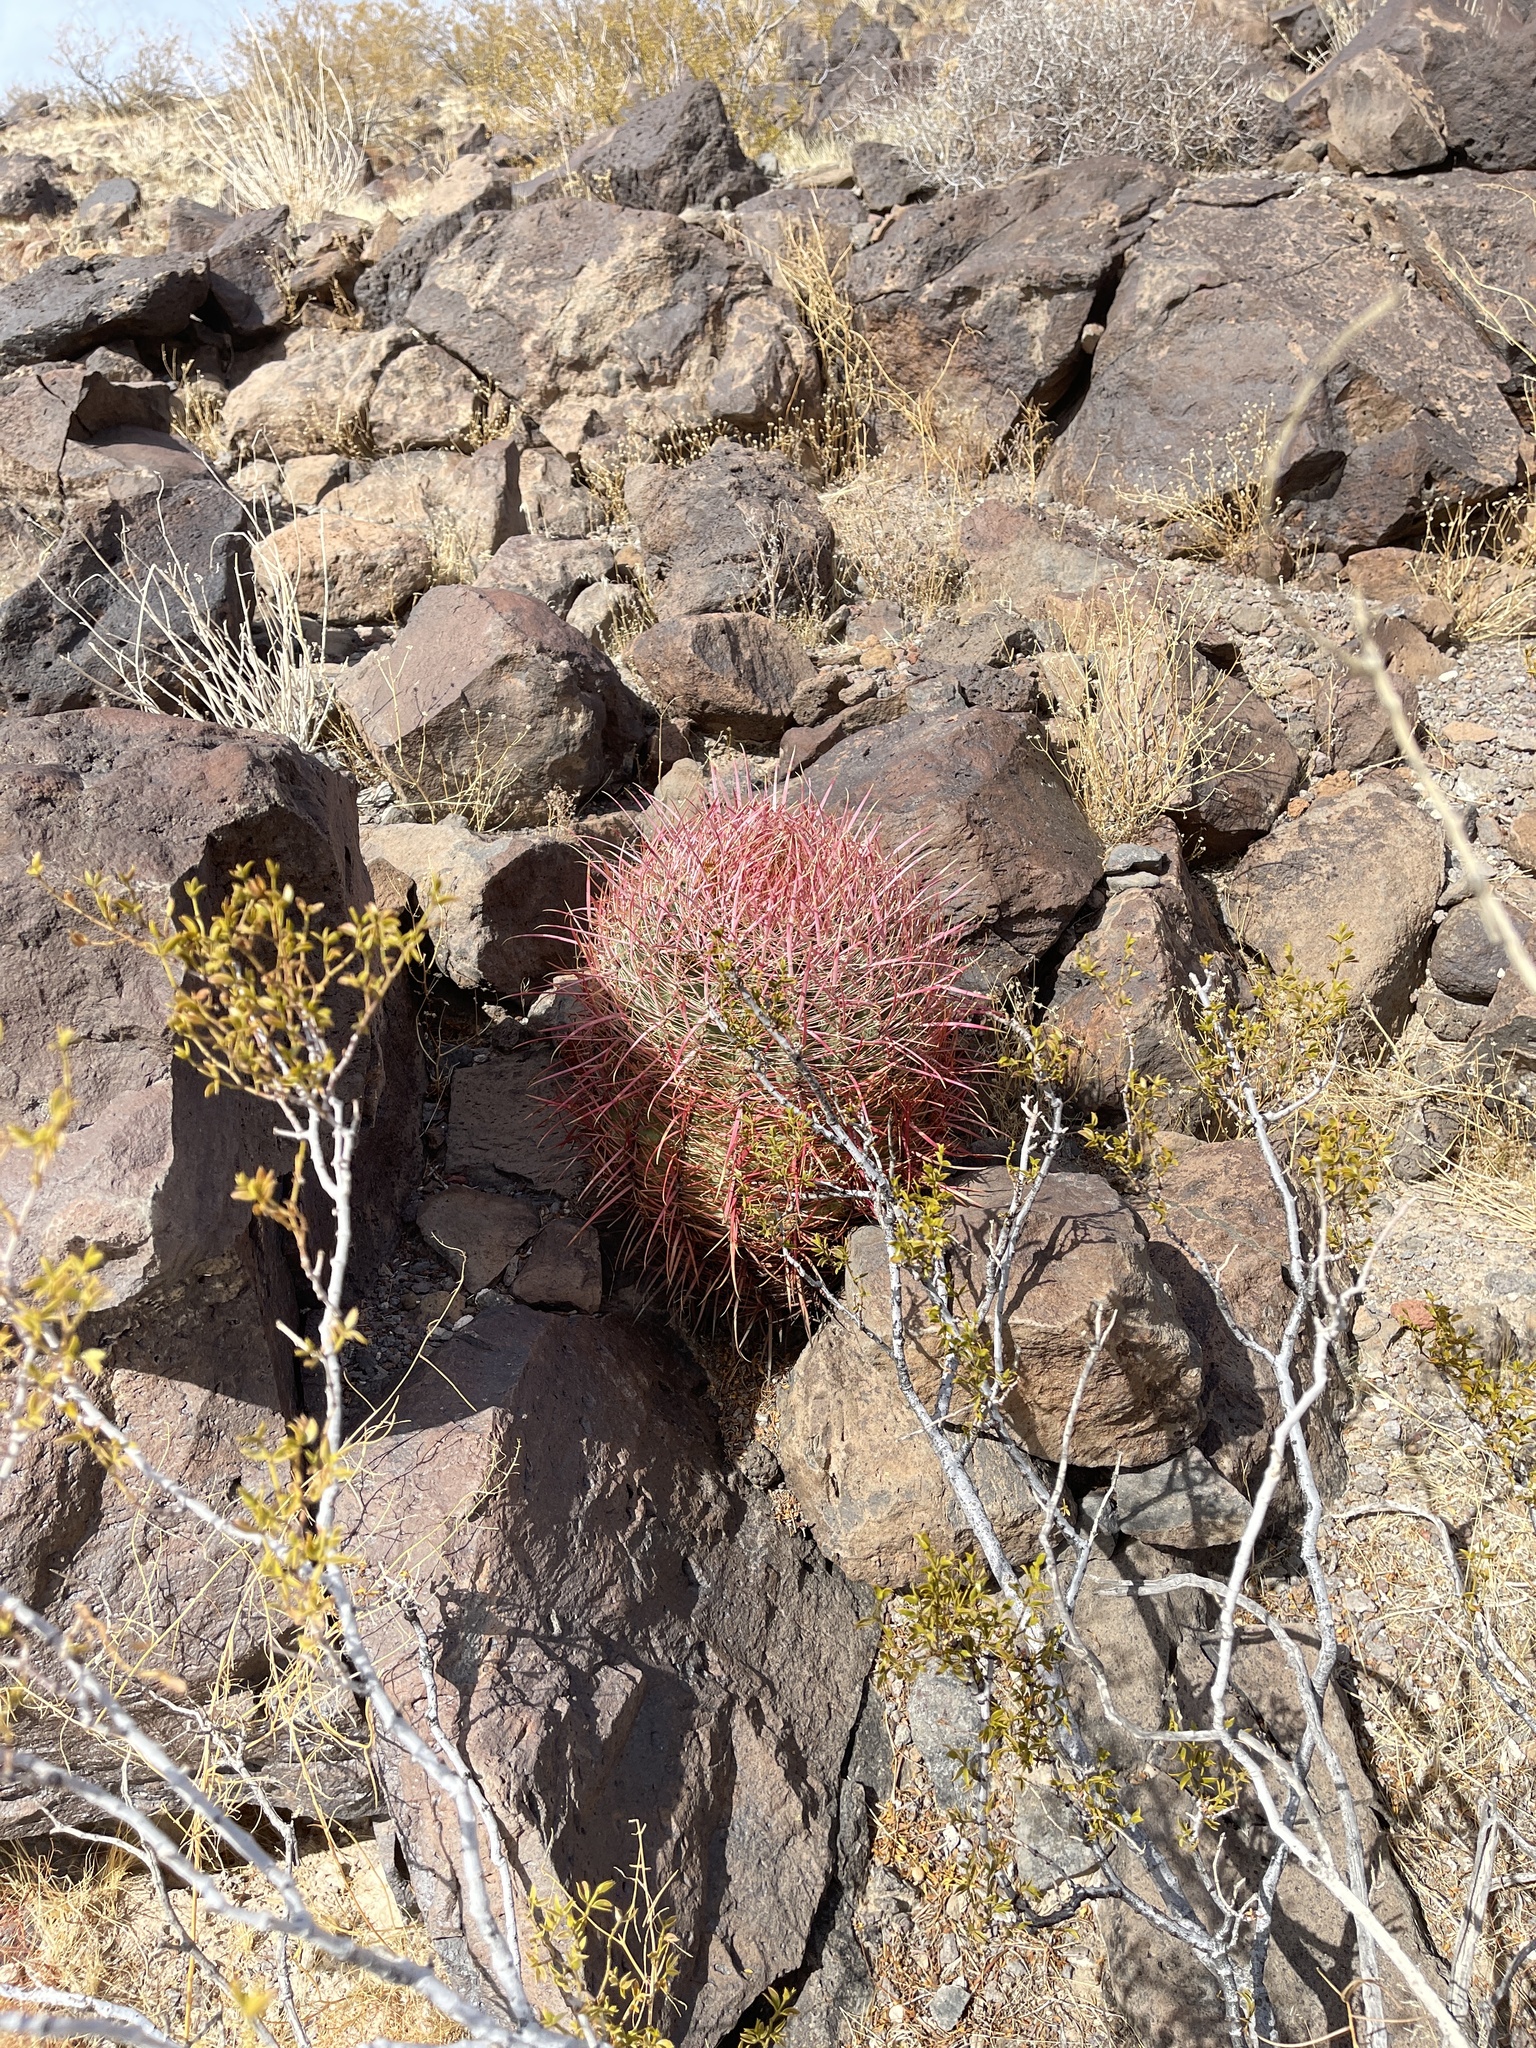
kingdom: Plantae
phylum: Tracheophyta
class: Magnoliopsida
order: Caryophyllales
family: Cactaceae
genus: Ferocactus
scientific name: Ferocactus cylindraceus
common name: California barrel cactus
